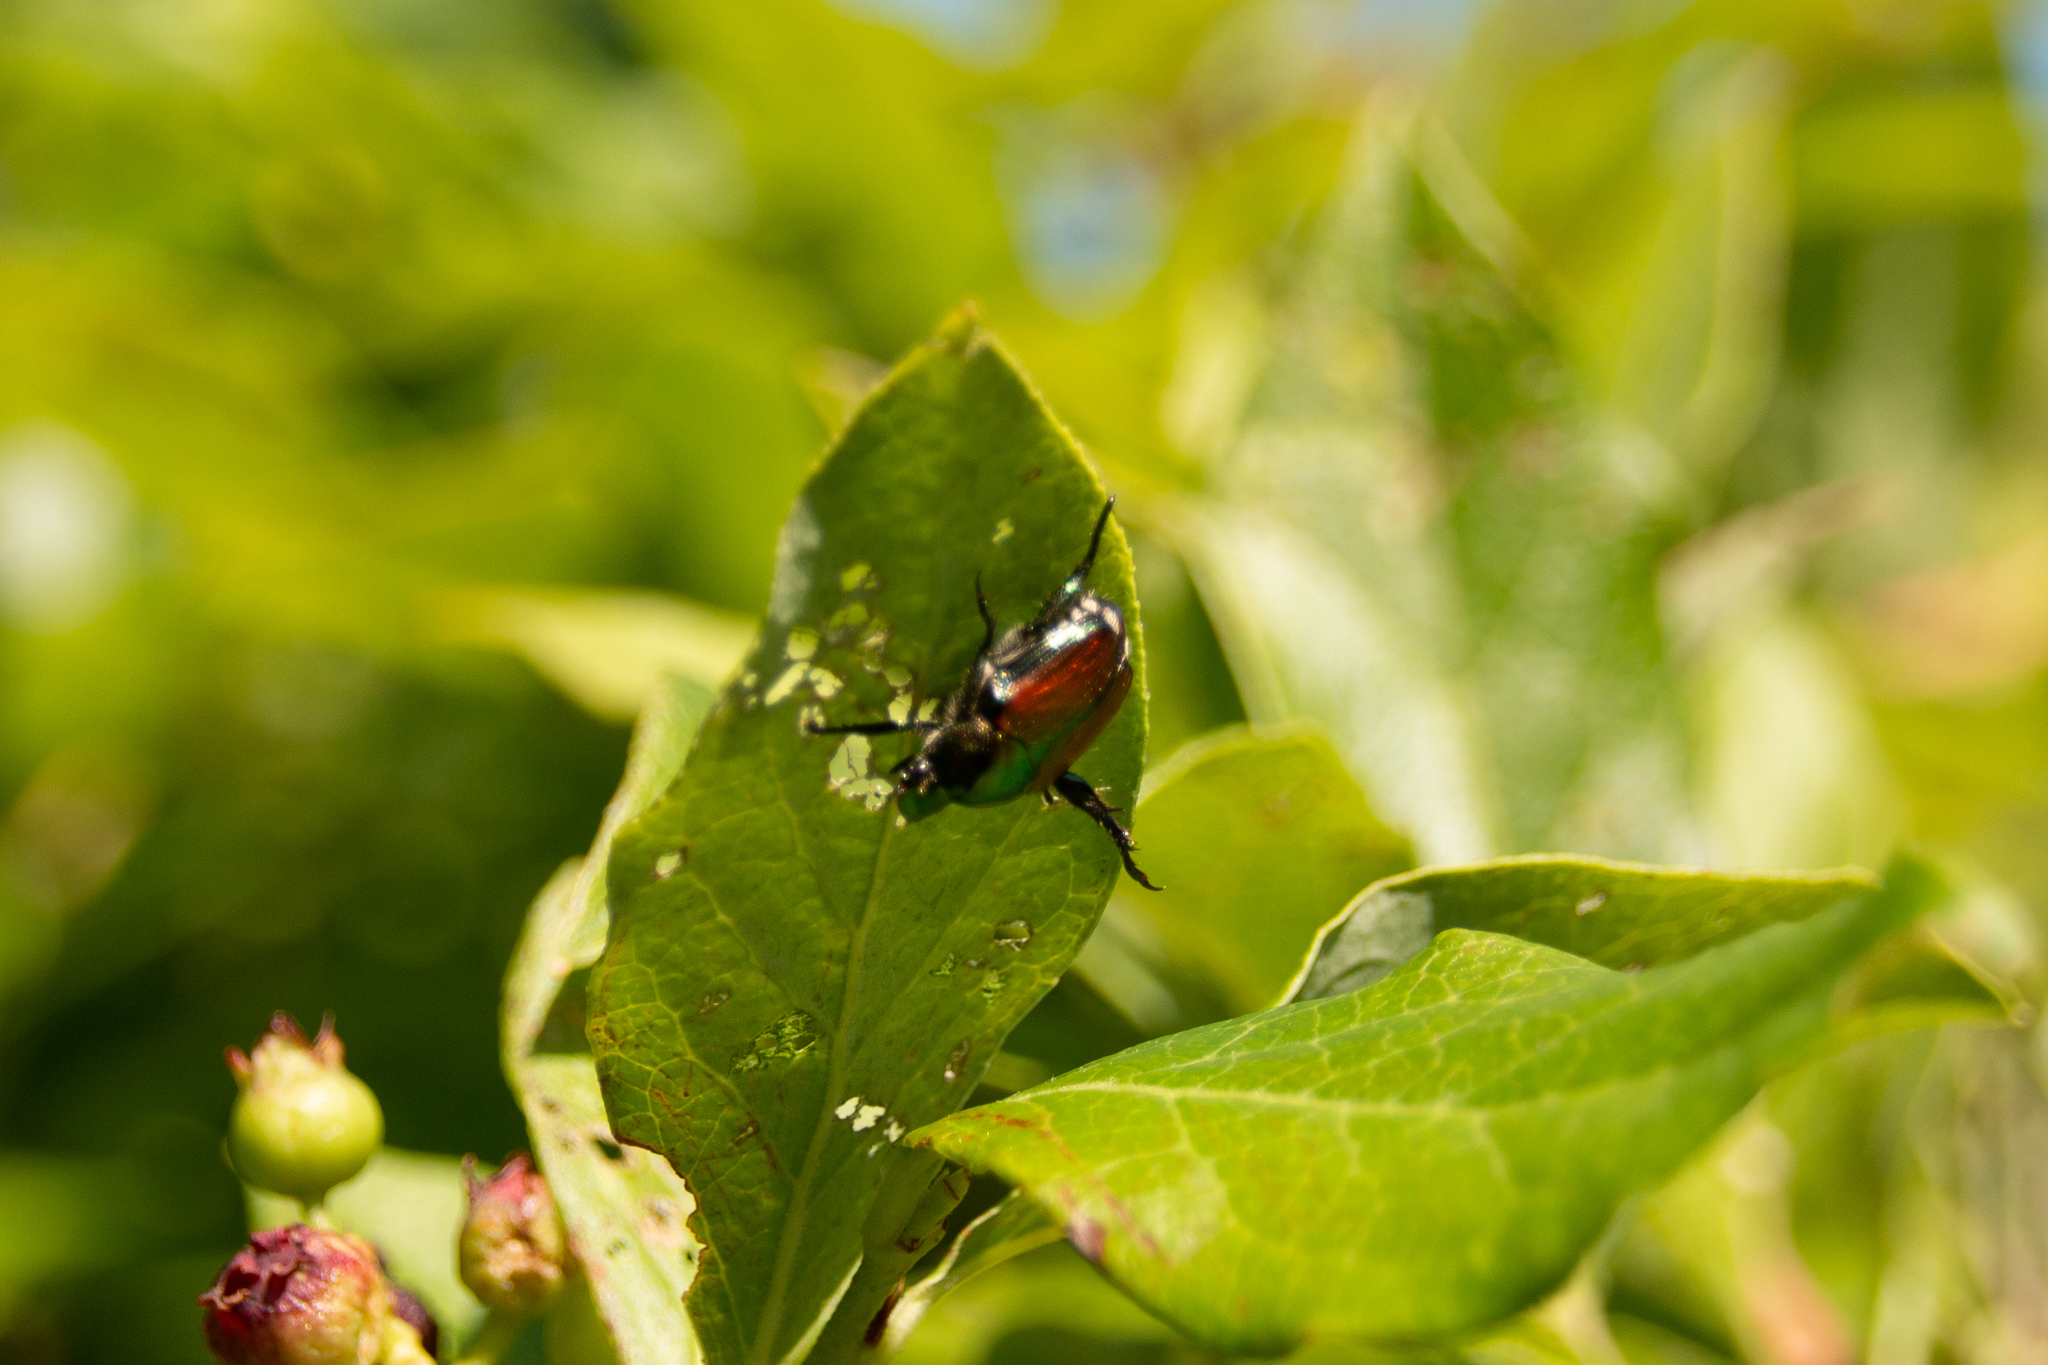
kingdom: Animalia
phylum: Arthropoda
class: Insecta
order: Coleoptera
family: Scarabaeidae
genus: Popillia
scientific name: Popillia japonica
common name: Japanese beetle
